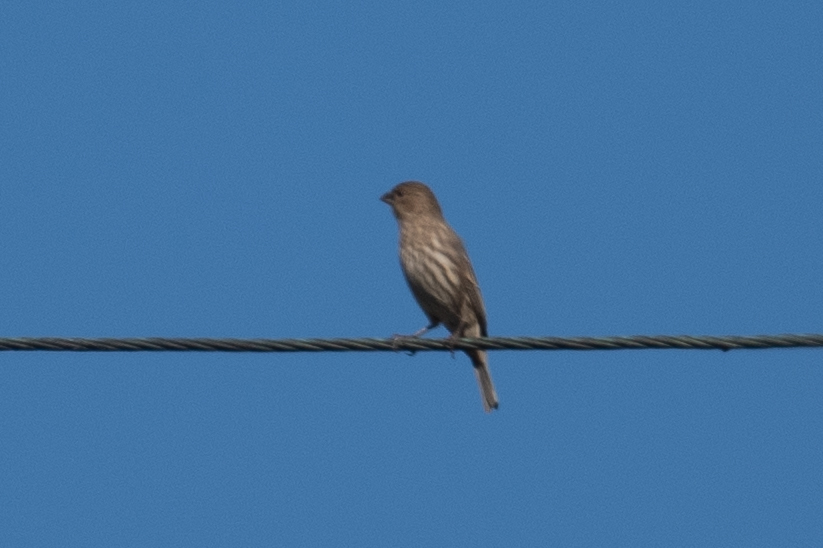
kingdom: Animalia
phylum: Chordata
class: Aves
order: Passeriformes
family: Fringillidae
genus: Haemorhous
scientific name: Haemorhous mexicanus
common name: House finch
